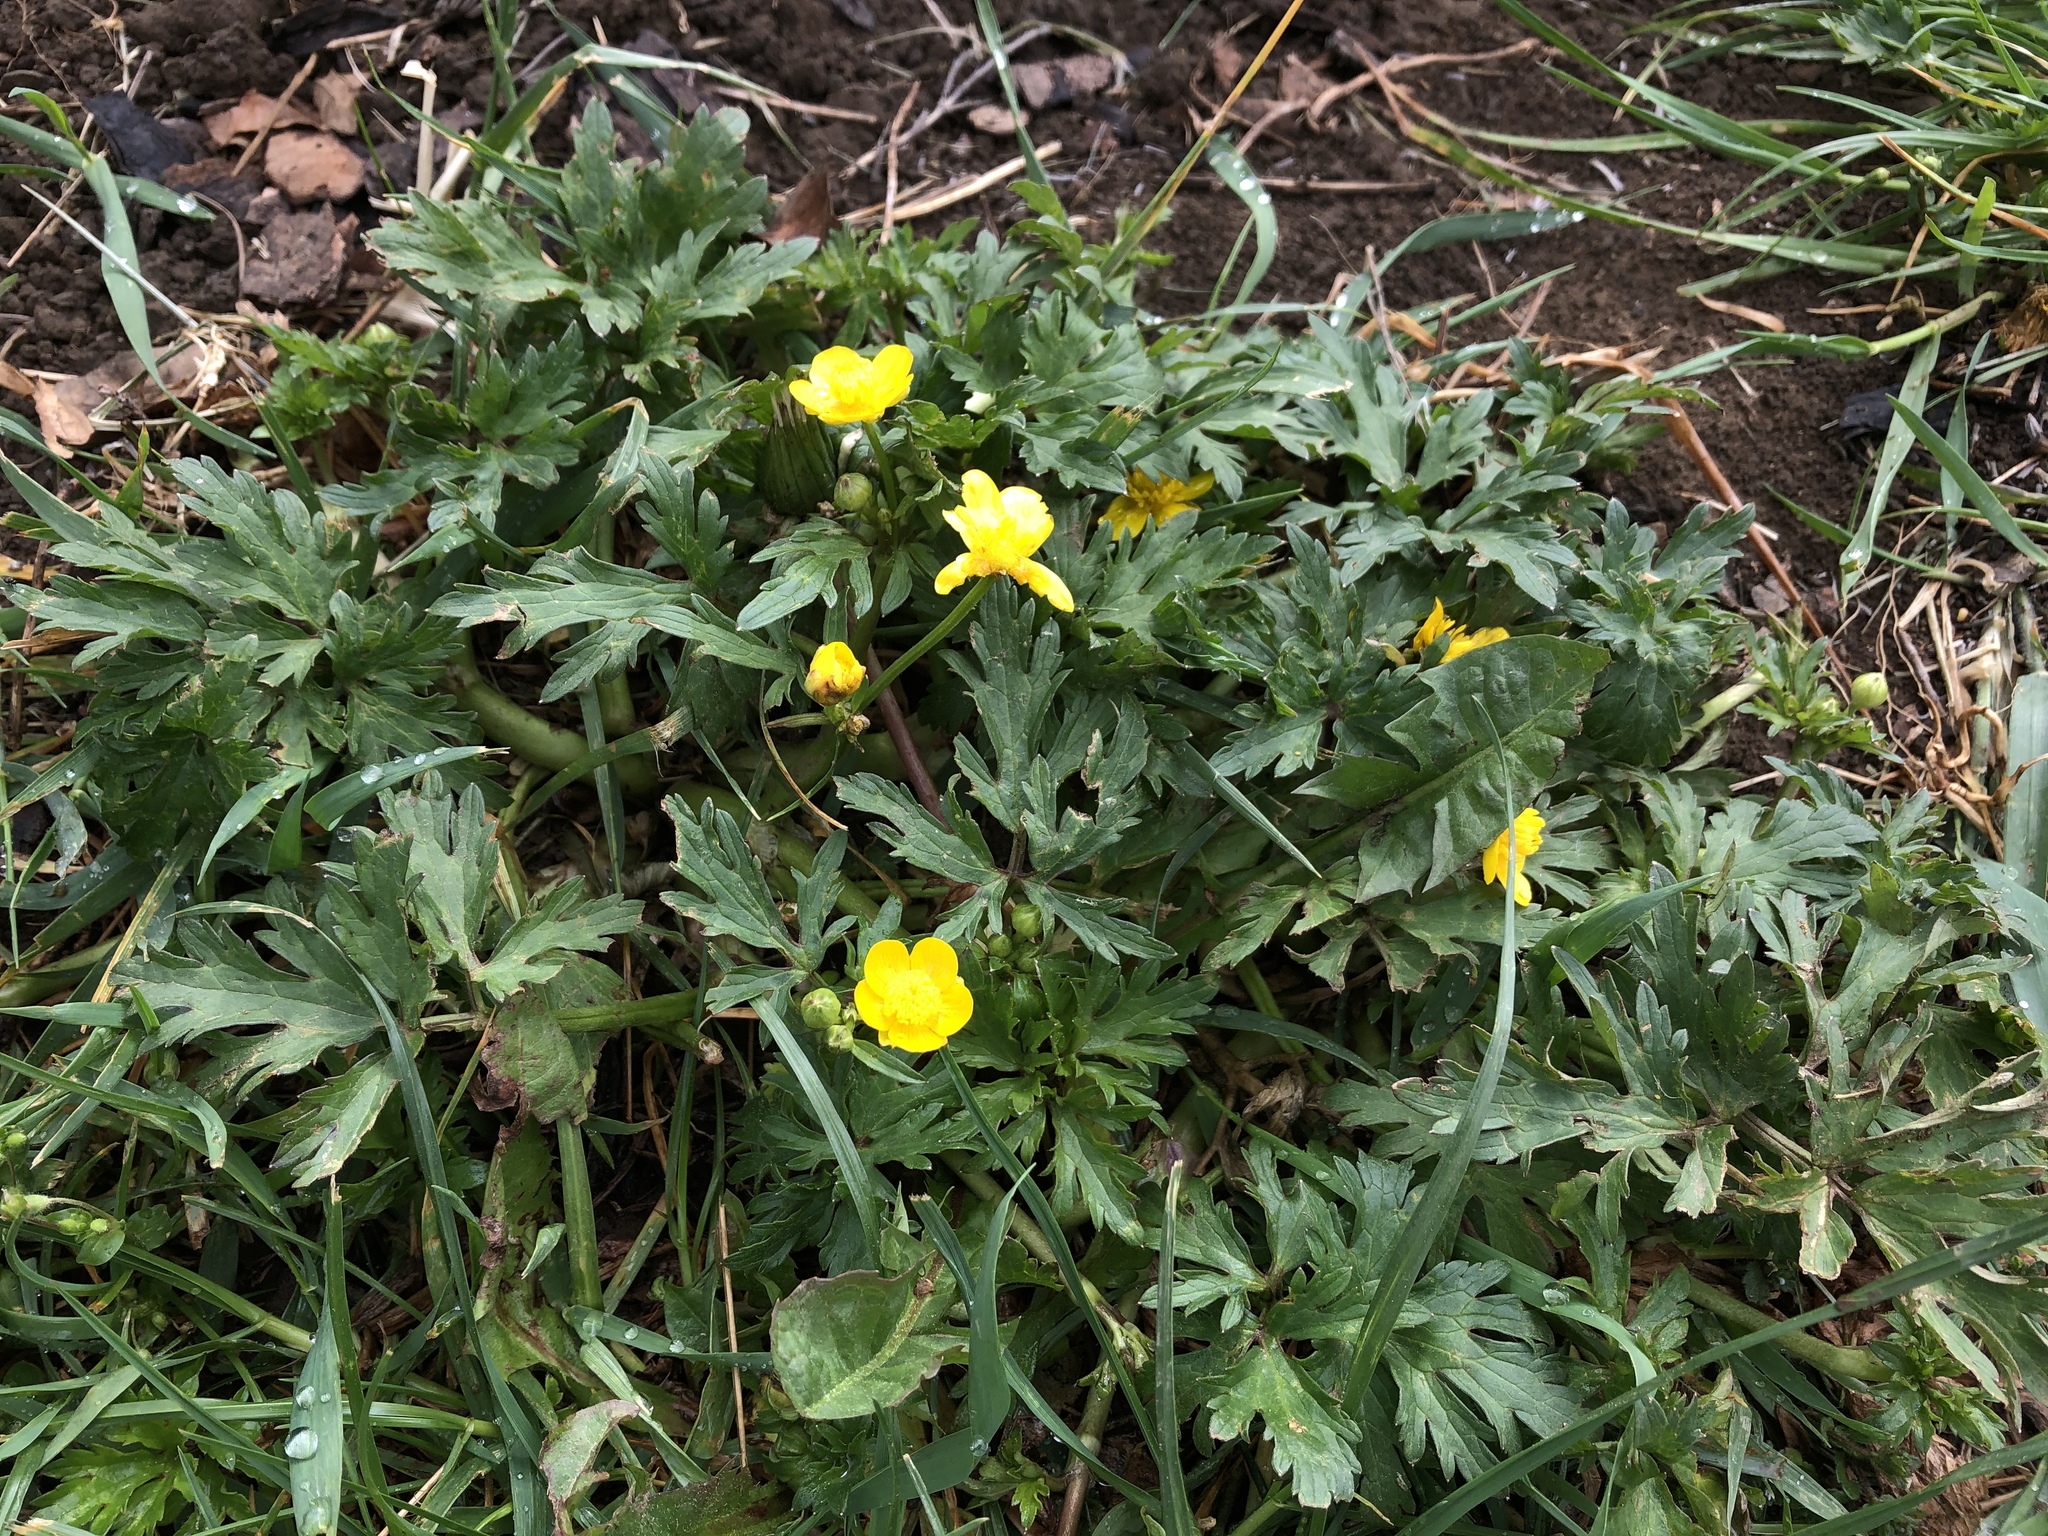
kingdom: Plantae
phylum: Tracheophyta
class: Magnoliopsida
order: Ranunculales
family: Ranunculaceae
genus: Ranunculus
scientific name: Ranunculus repens
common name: Creeping buttercup
